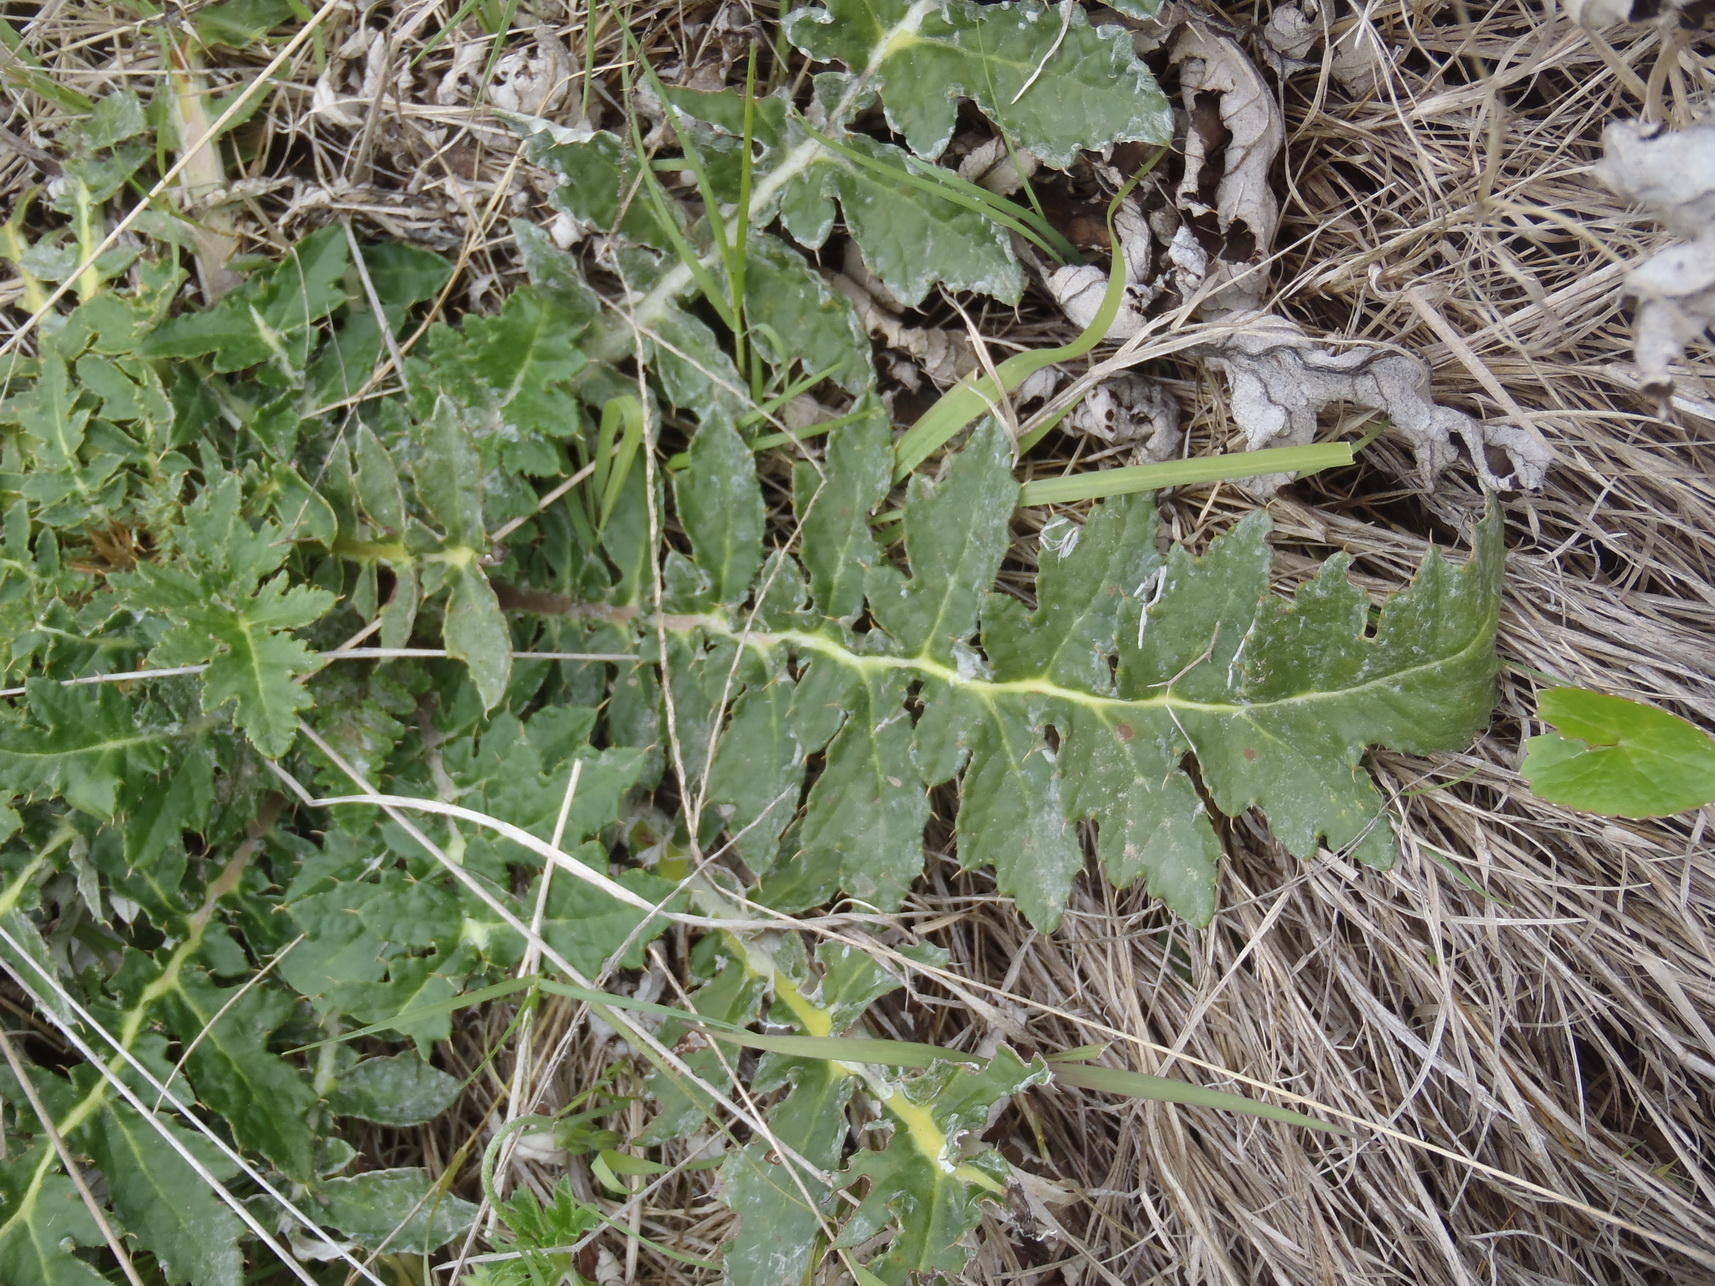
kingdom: Plantae
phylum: Tracheophyta
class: Magnoliopsida
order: Asterales
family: Asteraceae
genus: Platycarpha
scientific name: Platycarpha glomerata
